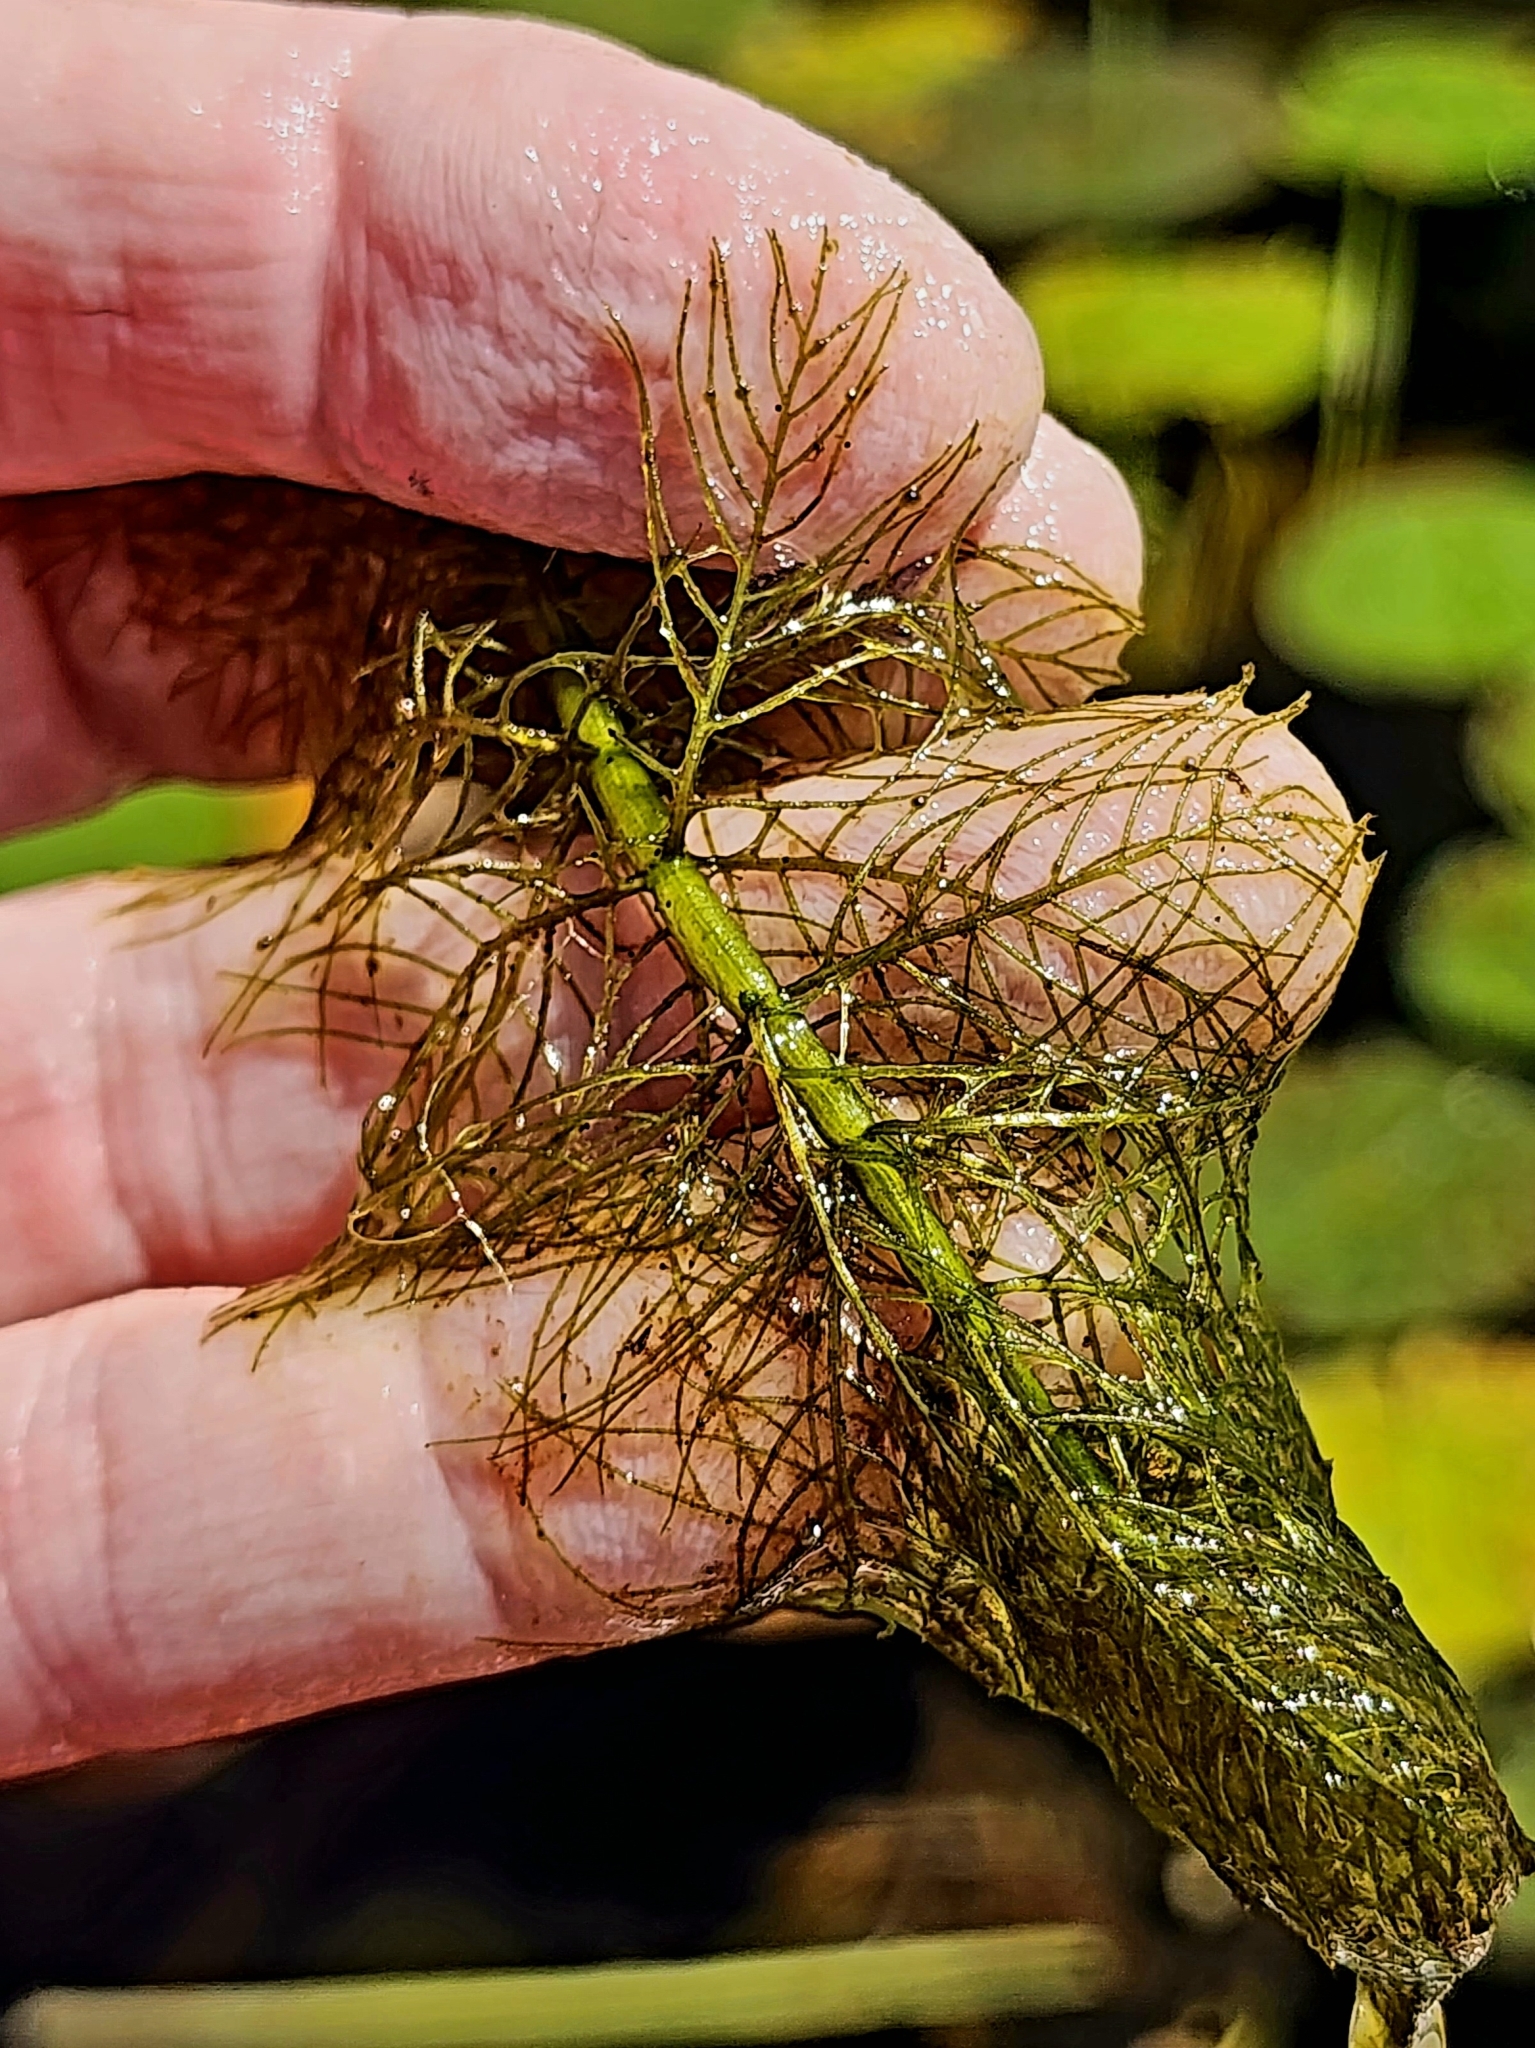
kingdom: Plantae
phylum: Tracheophyta
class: Magnoliopsida
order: Saxifragales
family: Haloragaceae
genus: Myriophyllum
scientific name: Myriophyllum verticillatum
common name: Whorled water-milfoil
